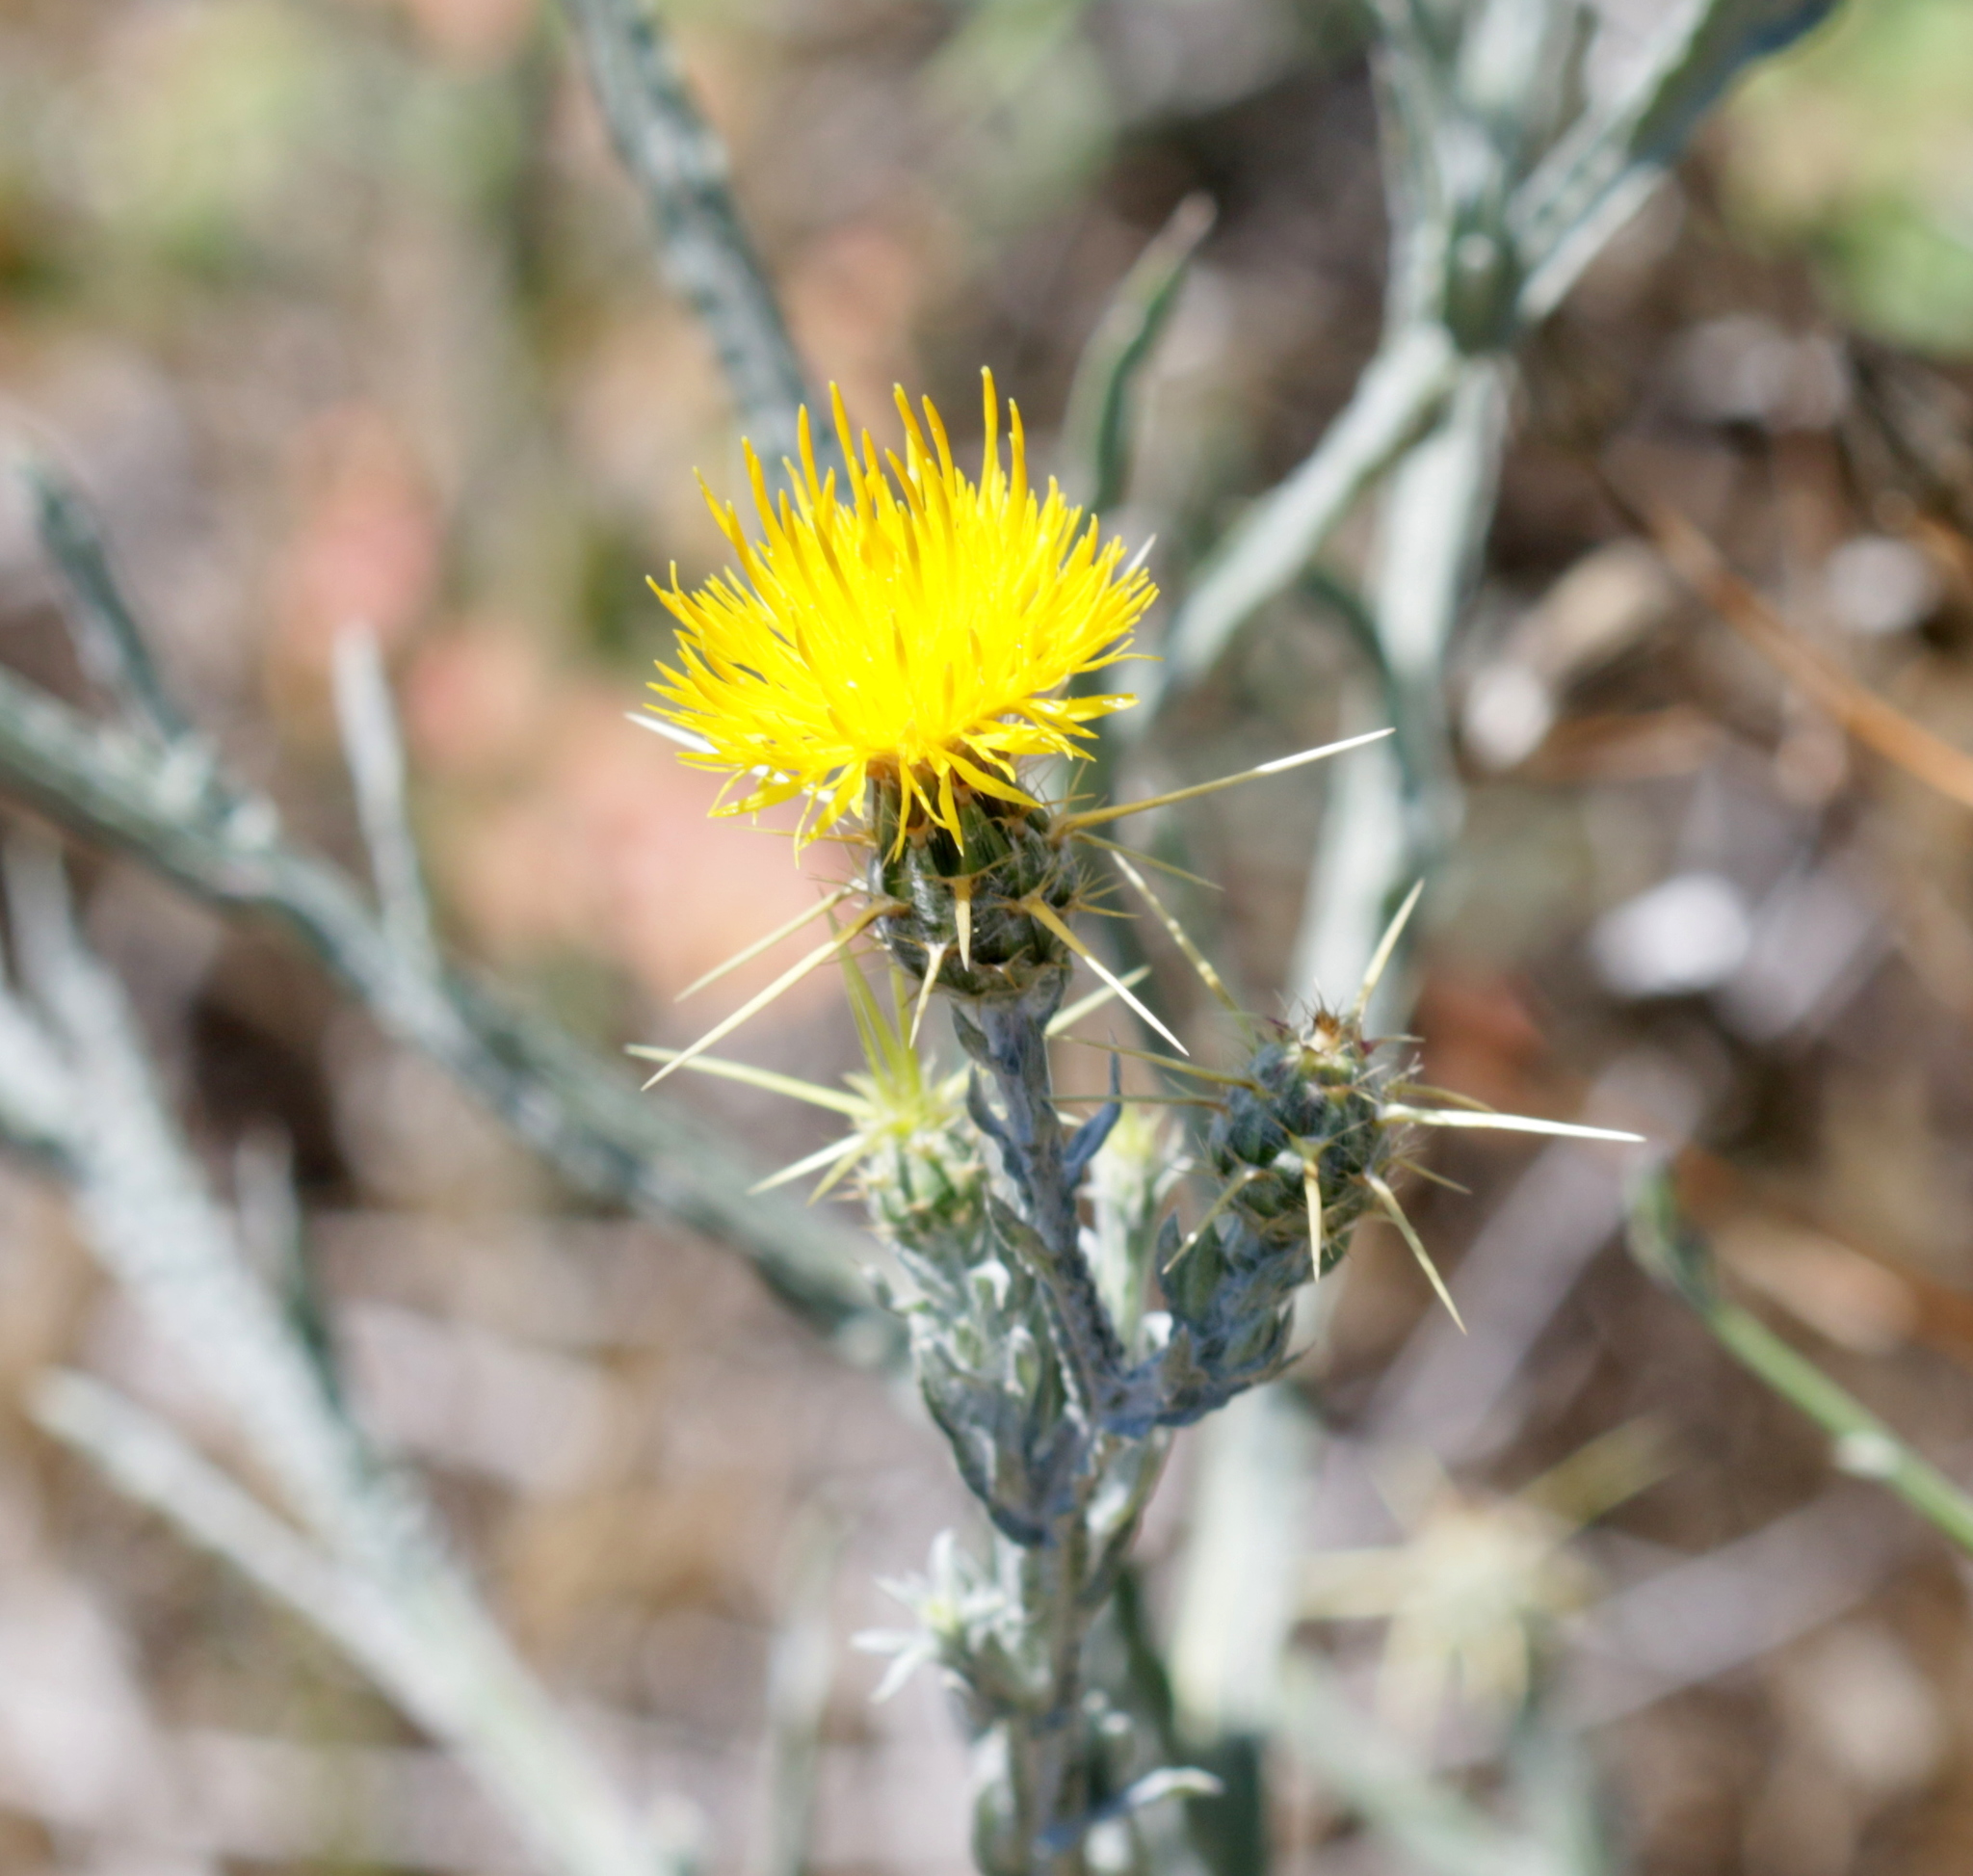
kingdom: Plantae
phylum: Tracheophyta
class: Magnoliopsida
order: Asterales
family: Asteraceae
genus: Centaurea
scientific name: Centaurea solstitialis
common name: Yellow star-thistle
